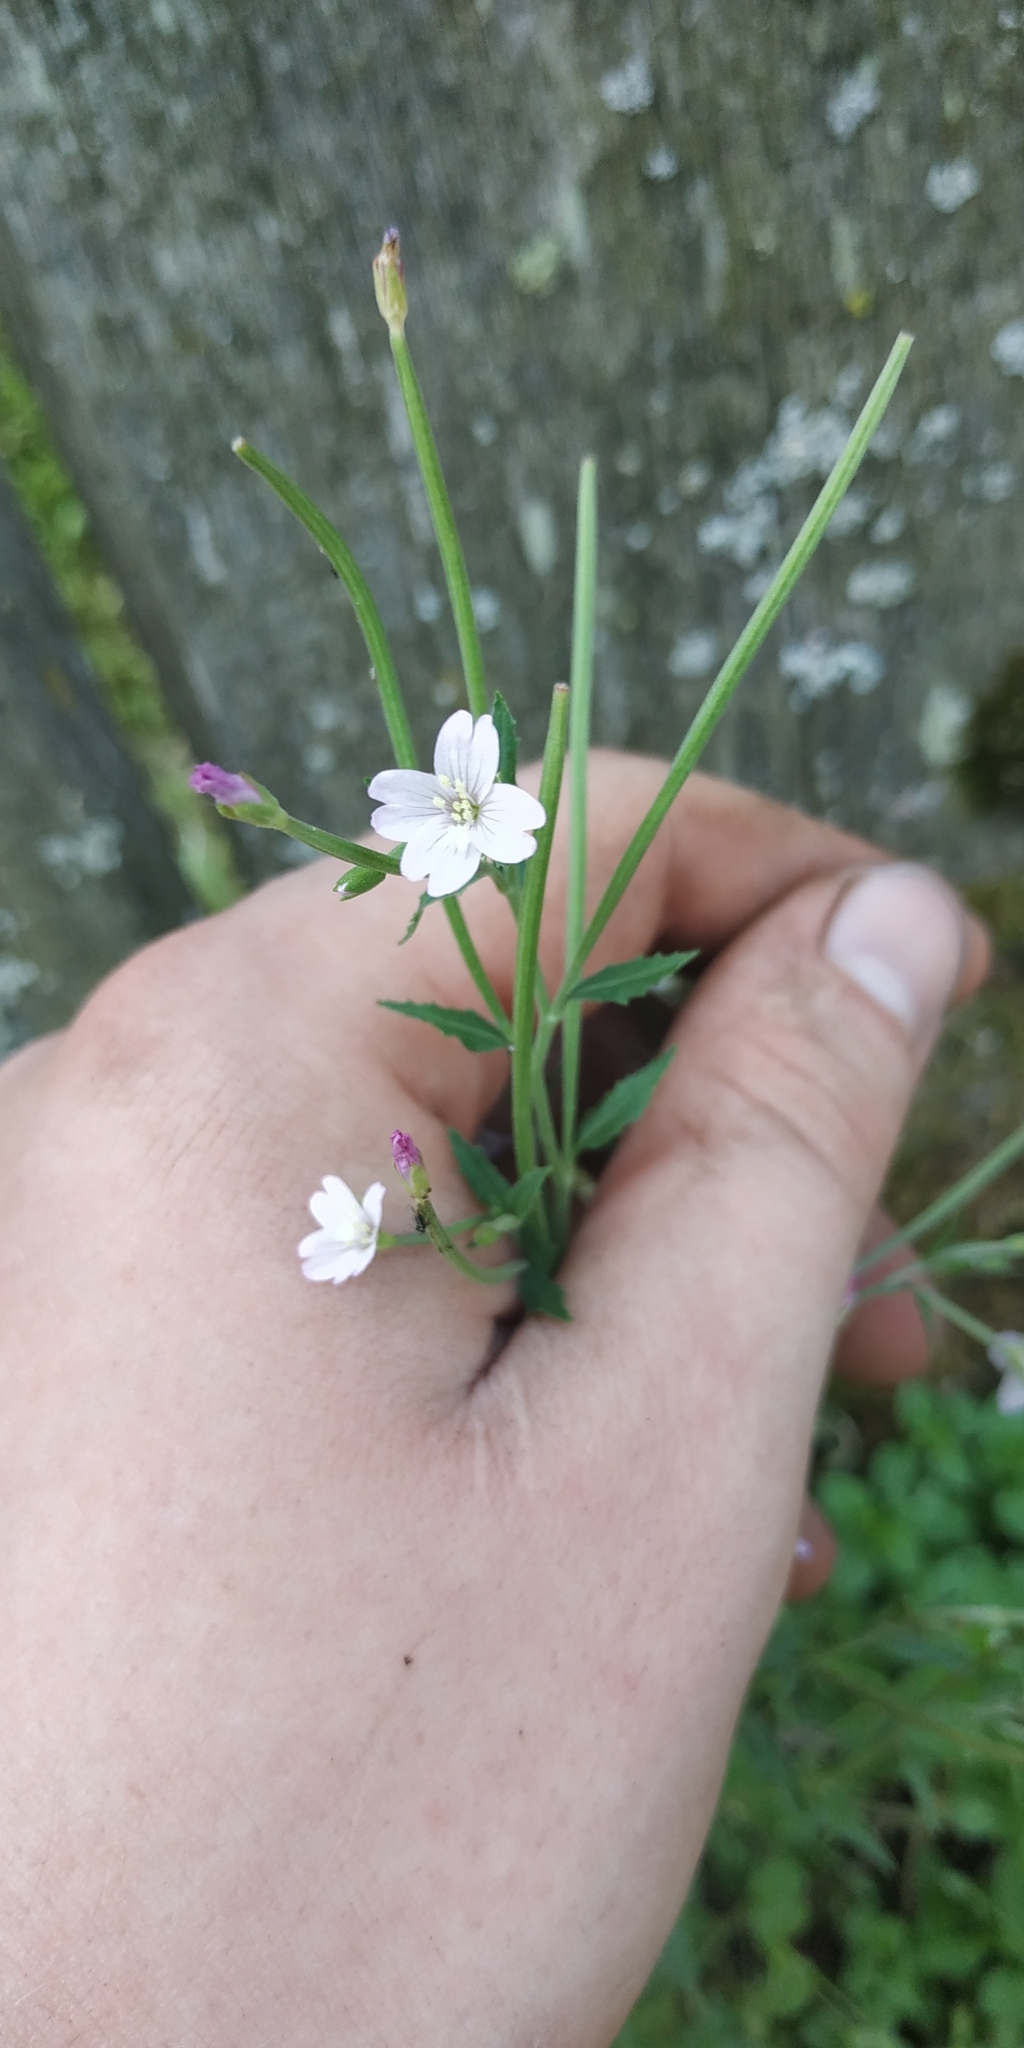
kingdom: Plantae
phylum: Tracheophyta
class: Magnoliopsida
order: Myrtales
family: Onagraceae
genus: Epilobium
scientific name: Epilobium pseudorubescens
